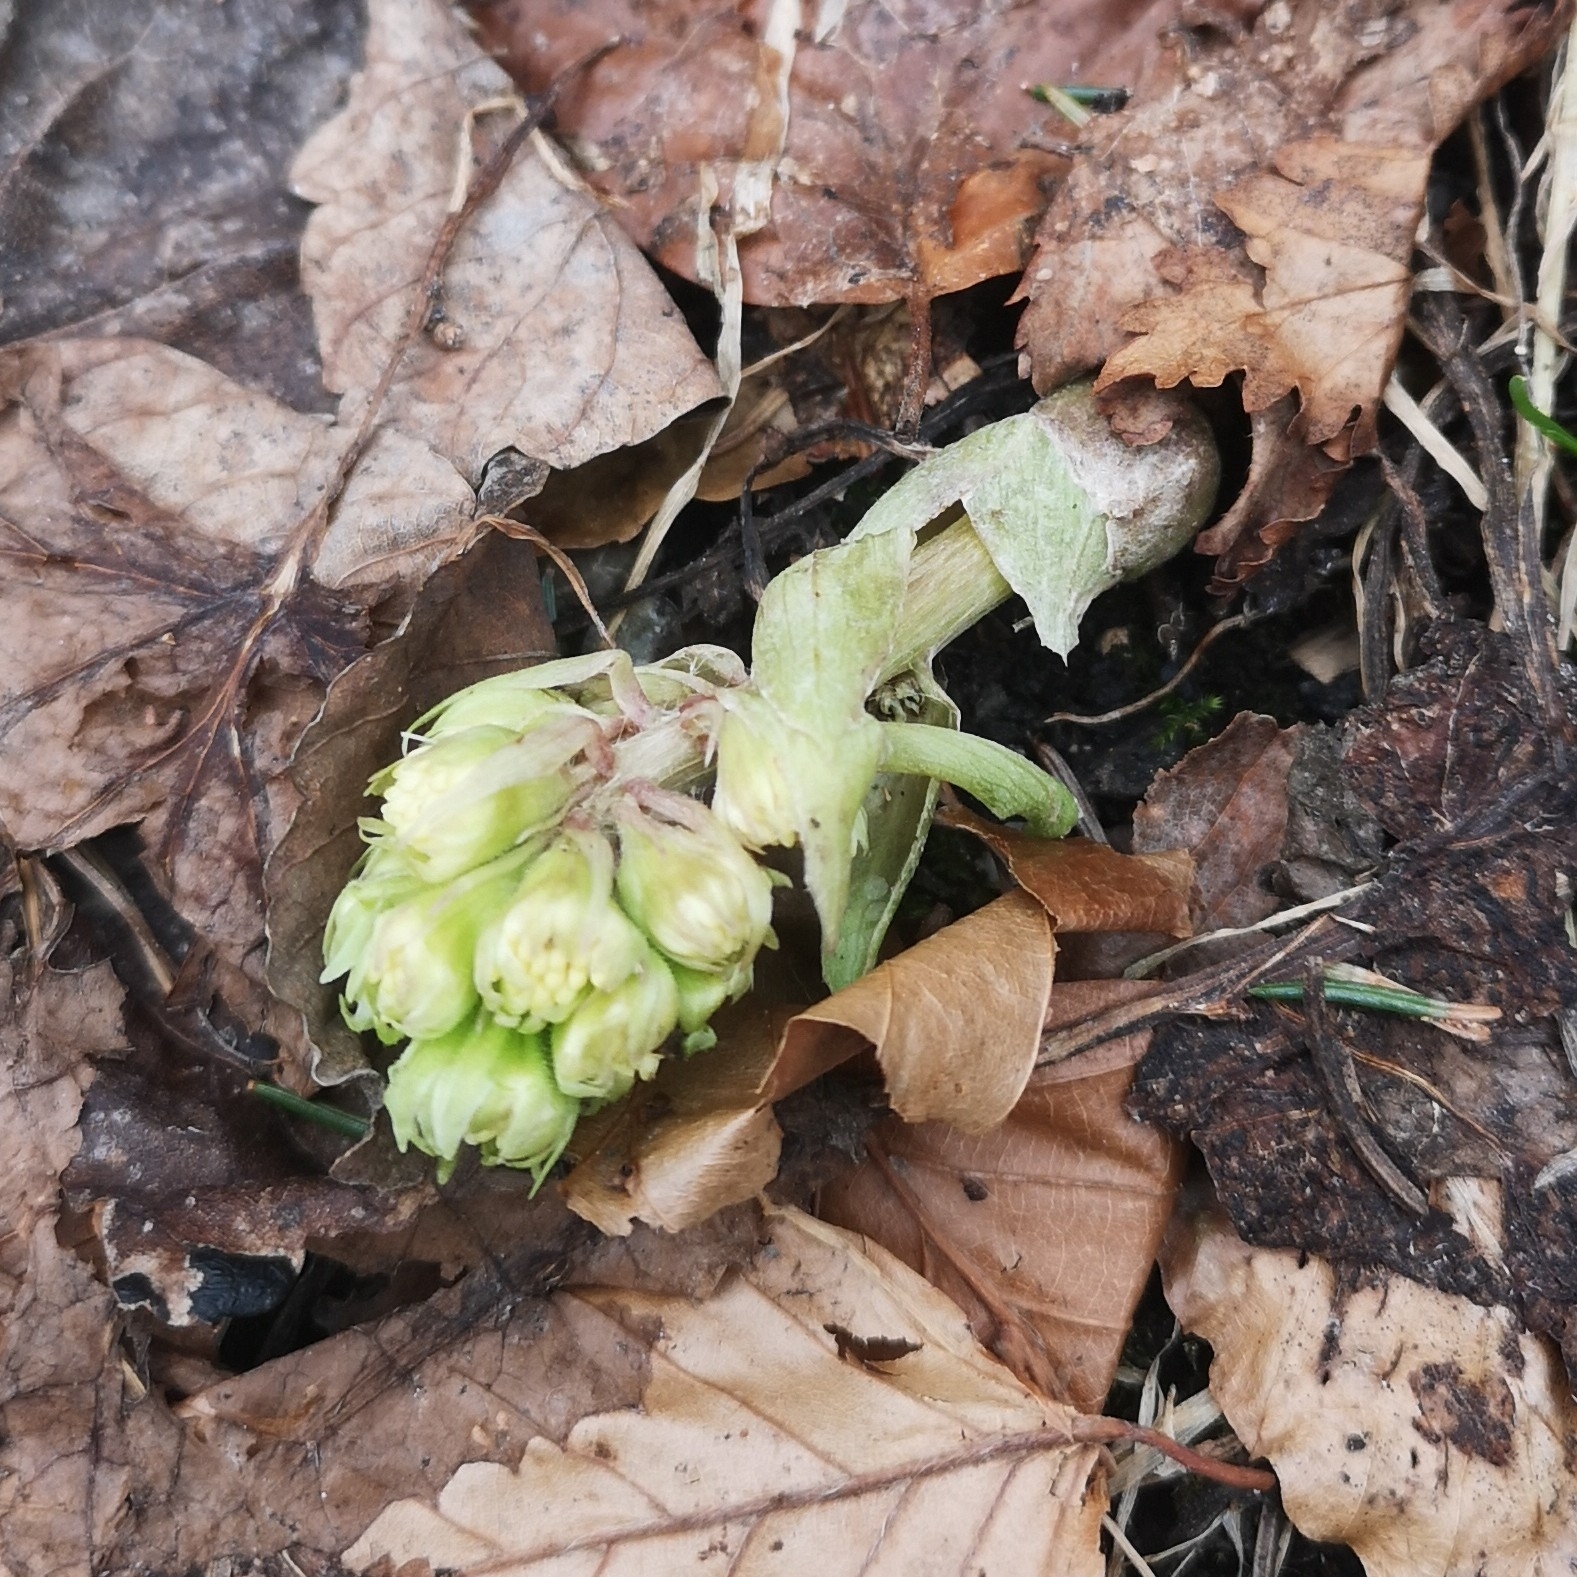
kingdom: Plantae
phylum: Tracheophyta
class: Magnoliopsida
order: Asterales
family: Asteraceae
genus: Petasites
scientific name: Petasites albus
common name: White butterbur
